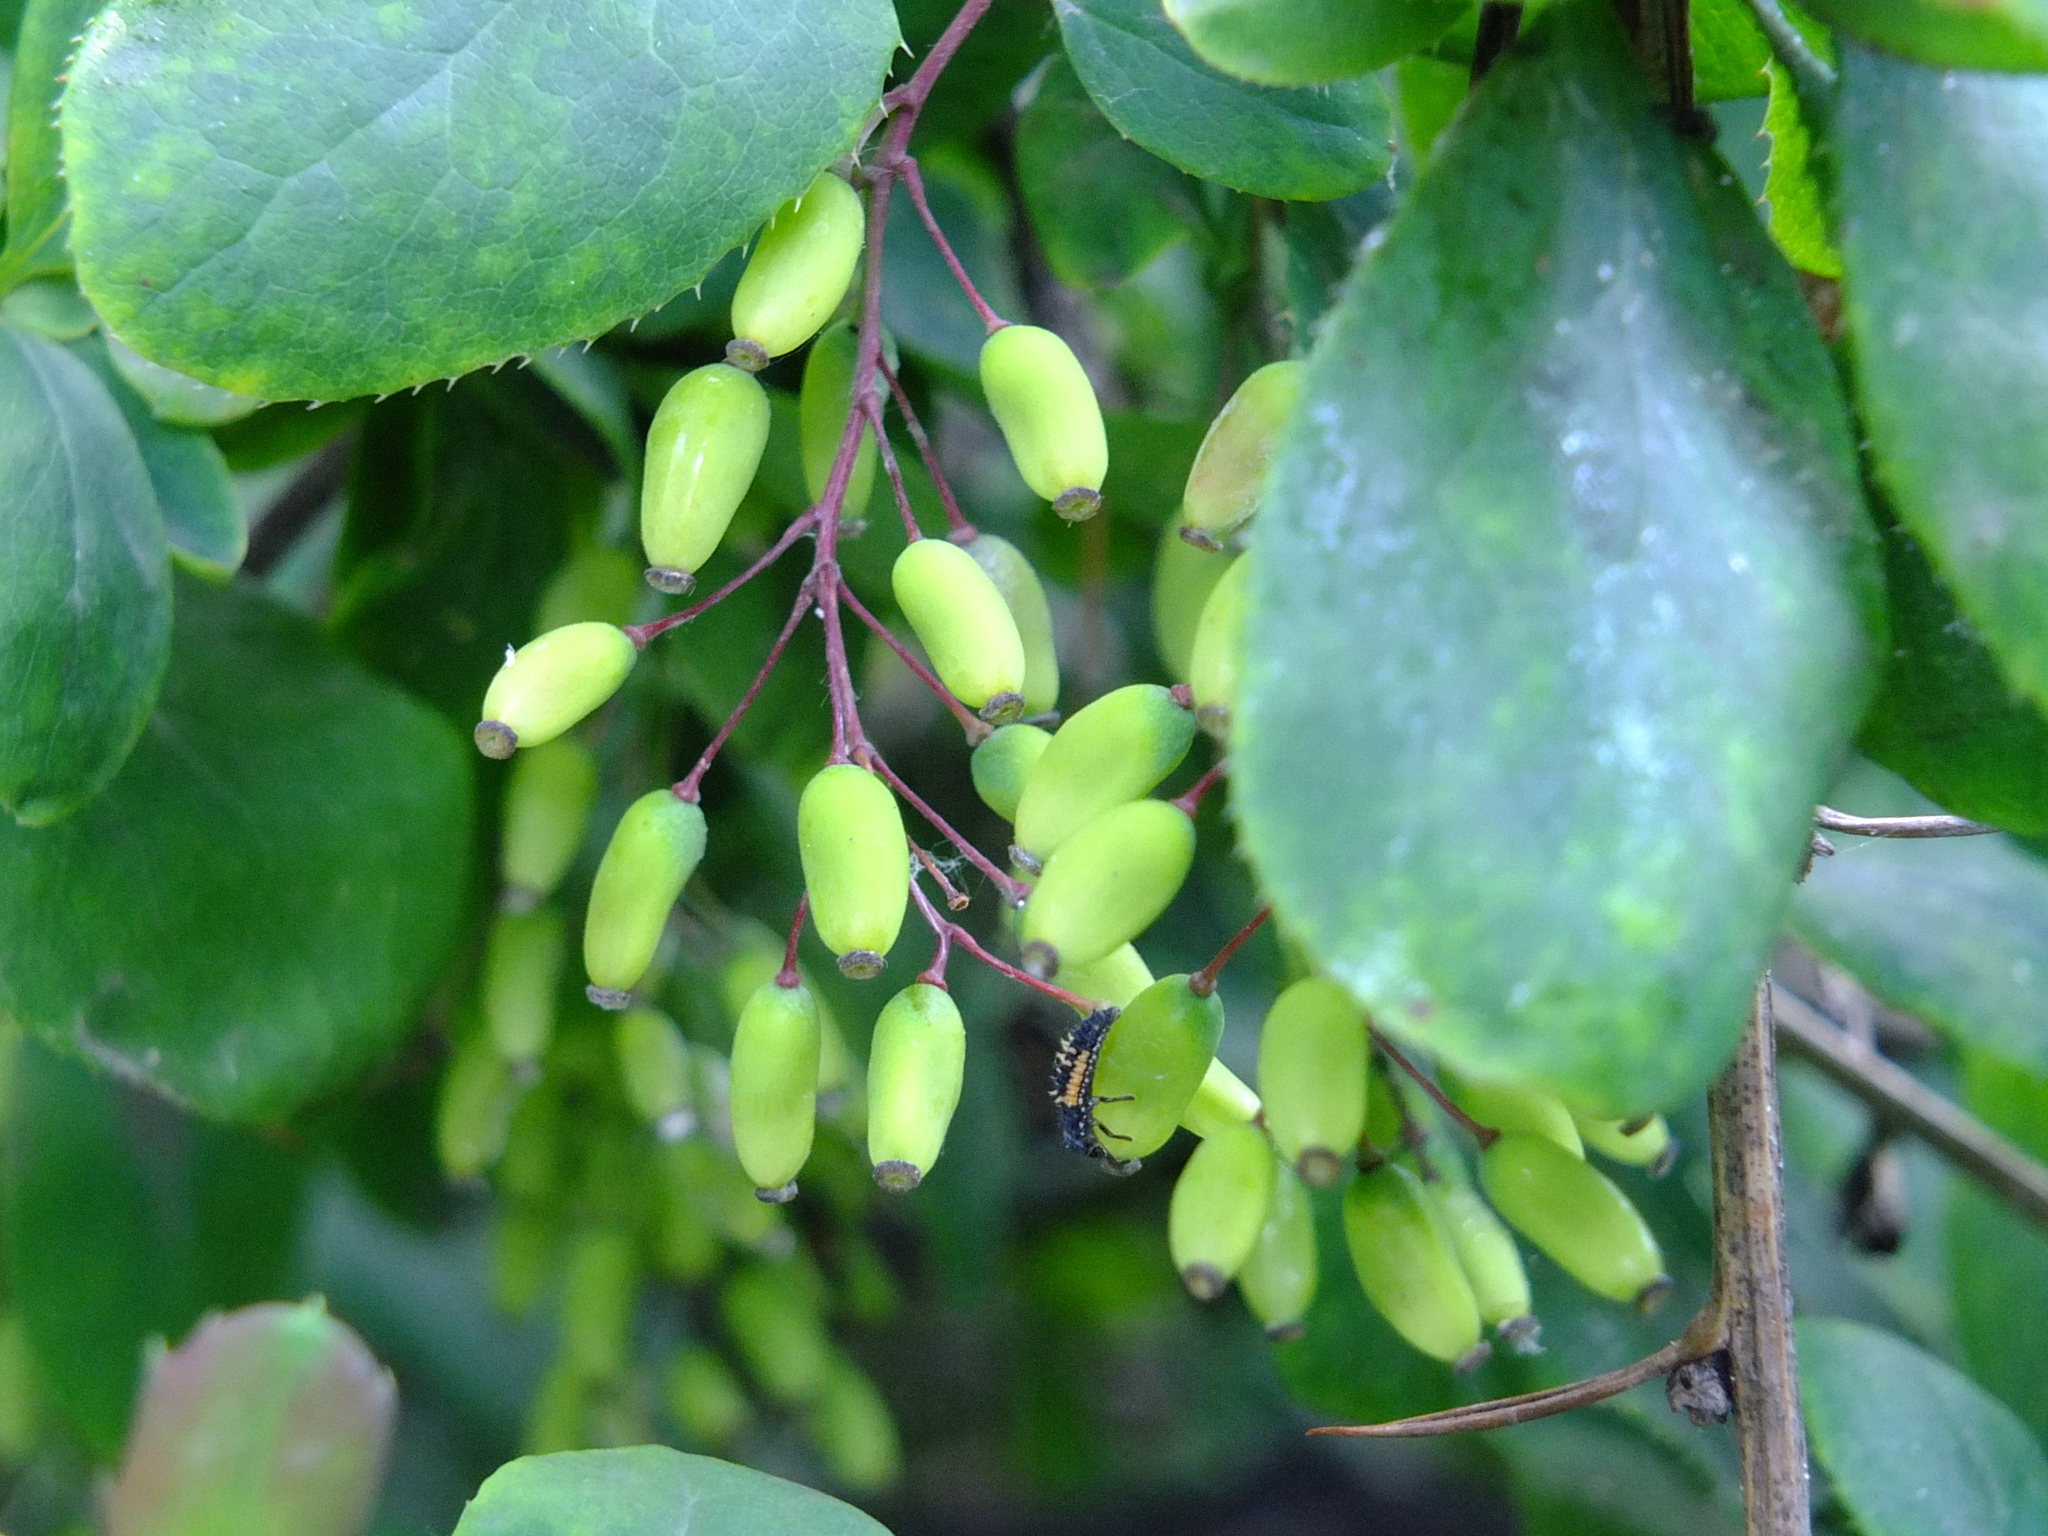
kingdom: Animalia
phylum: Arthropoda
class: Insecta
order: Coleoptera
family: Coccinellidae
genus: Harmonia
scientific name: Harmonia axyridis
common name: Harlequin ladybird
